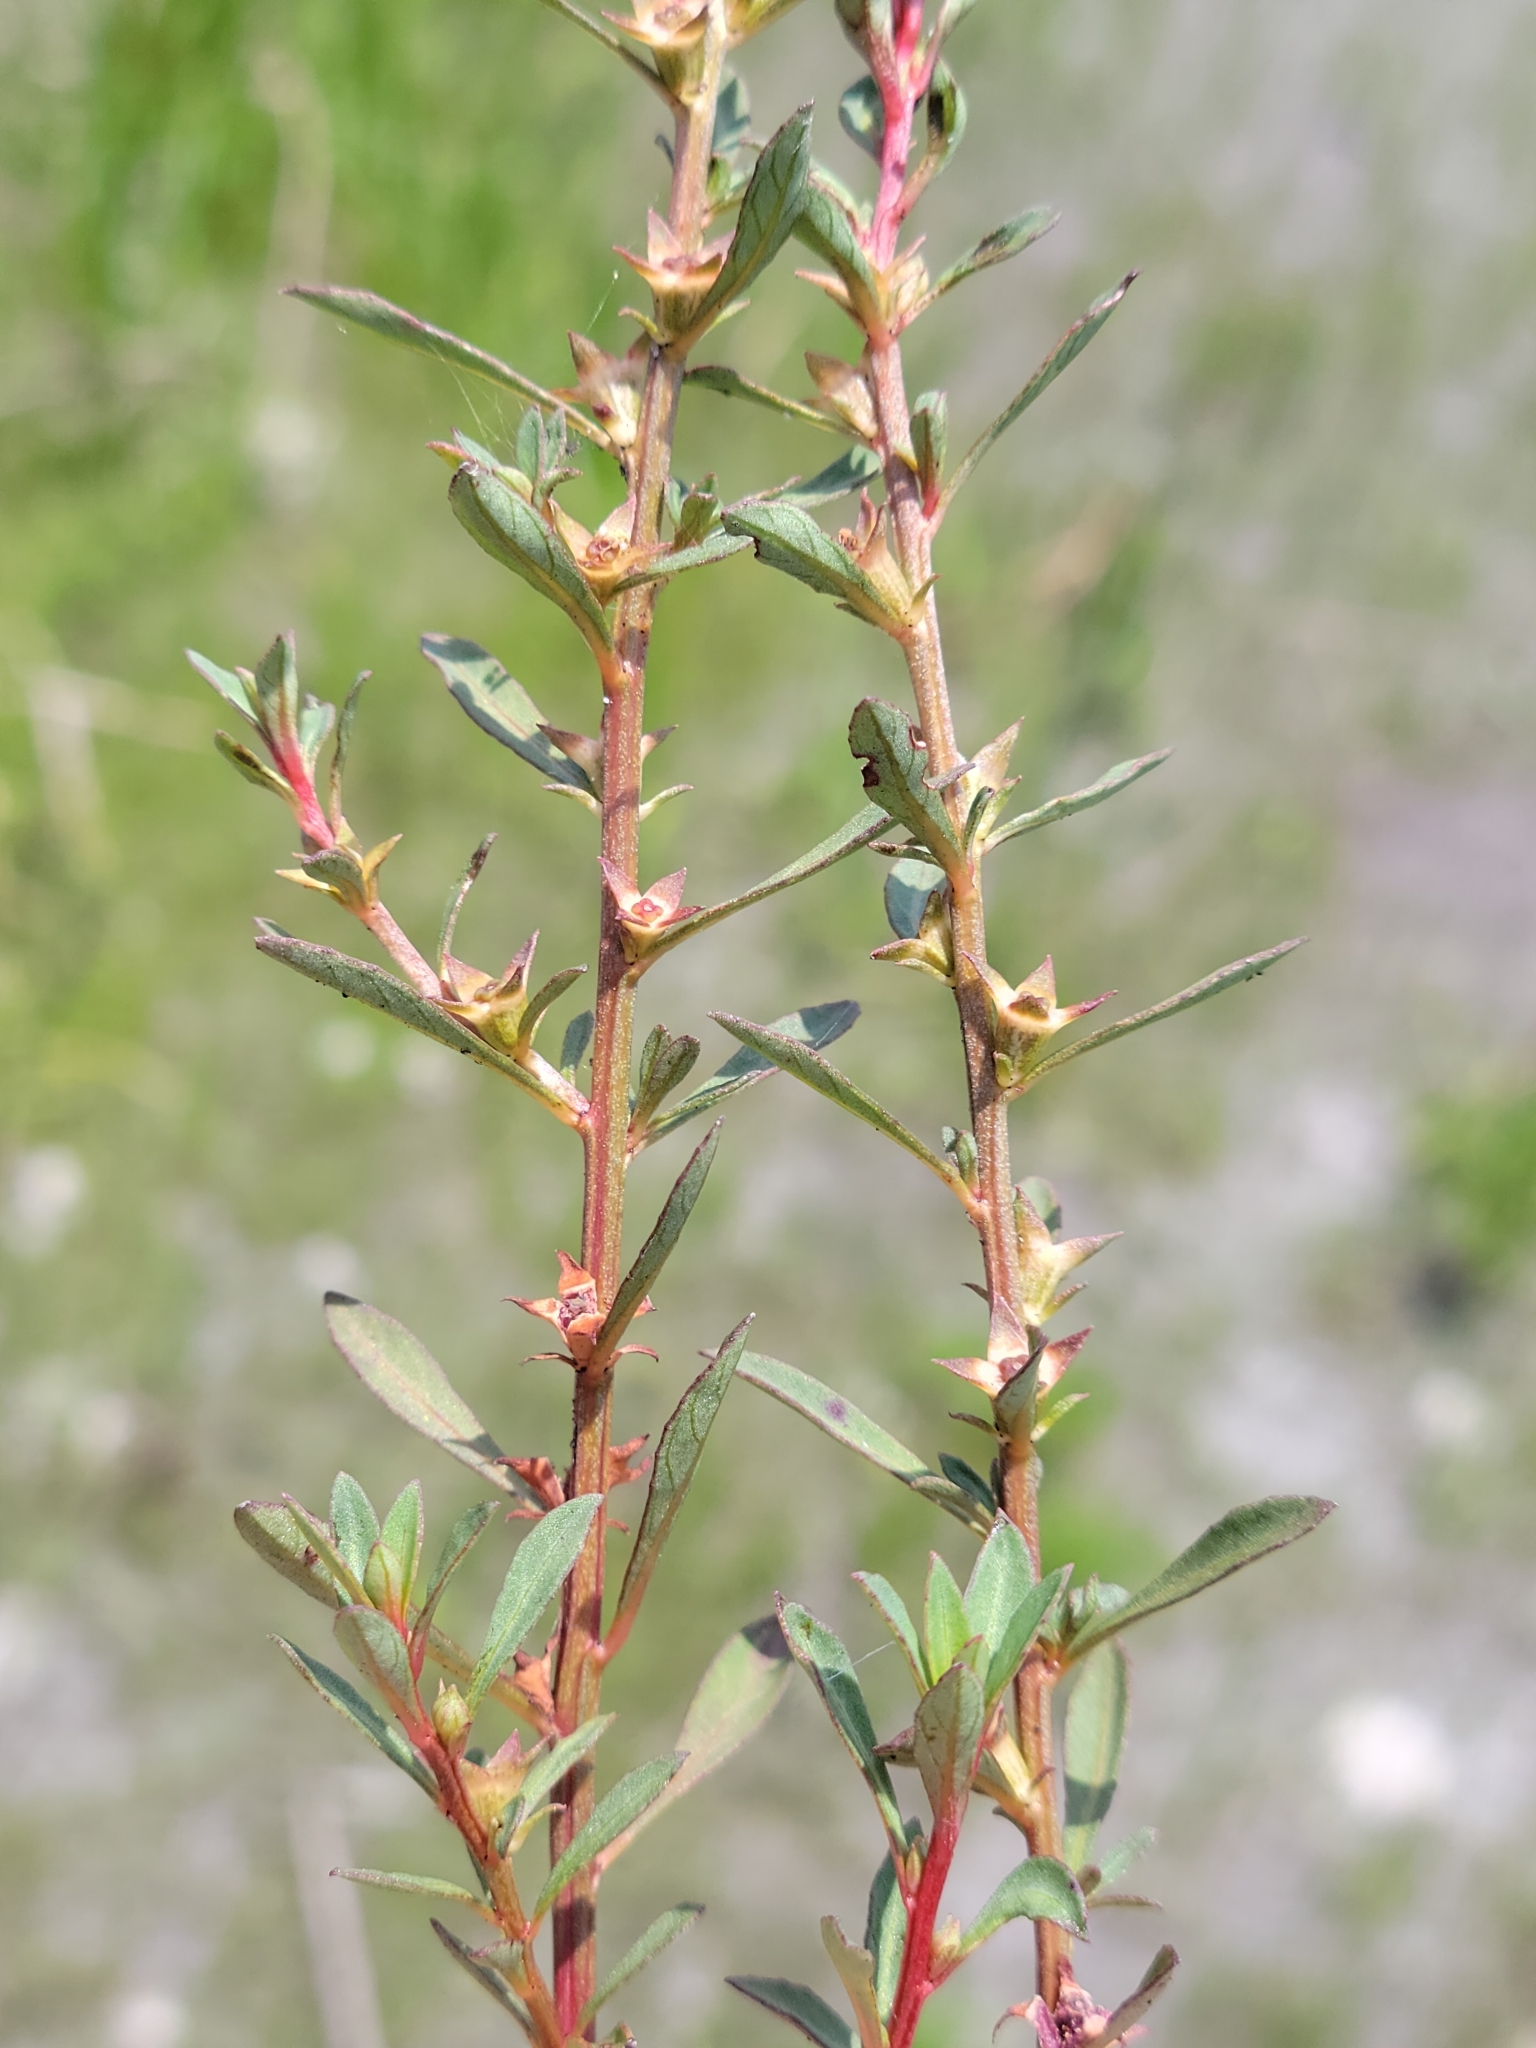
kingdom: Plantae
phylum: Tracheophyta
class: Magnoliopsida
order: Myrtales
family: Onagraceae
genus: Ludwigia
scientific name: Ludwigia curtissii
